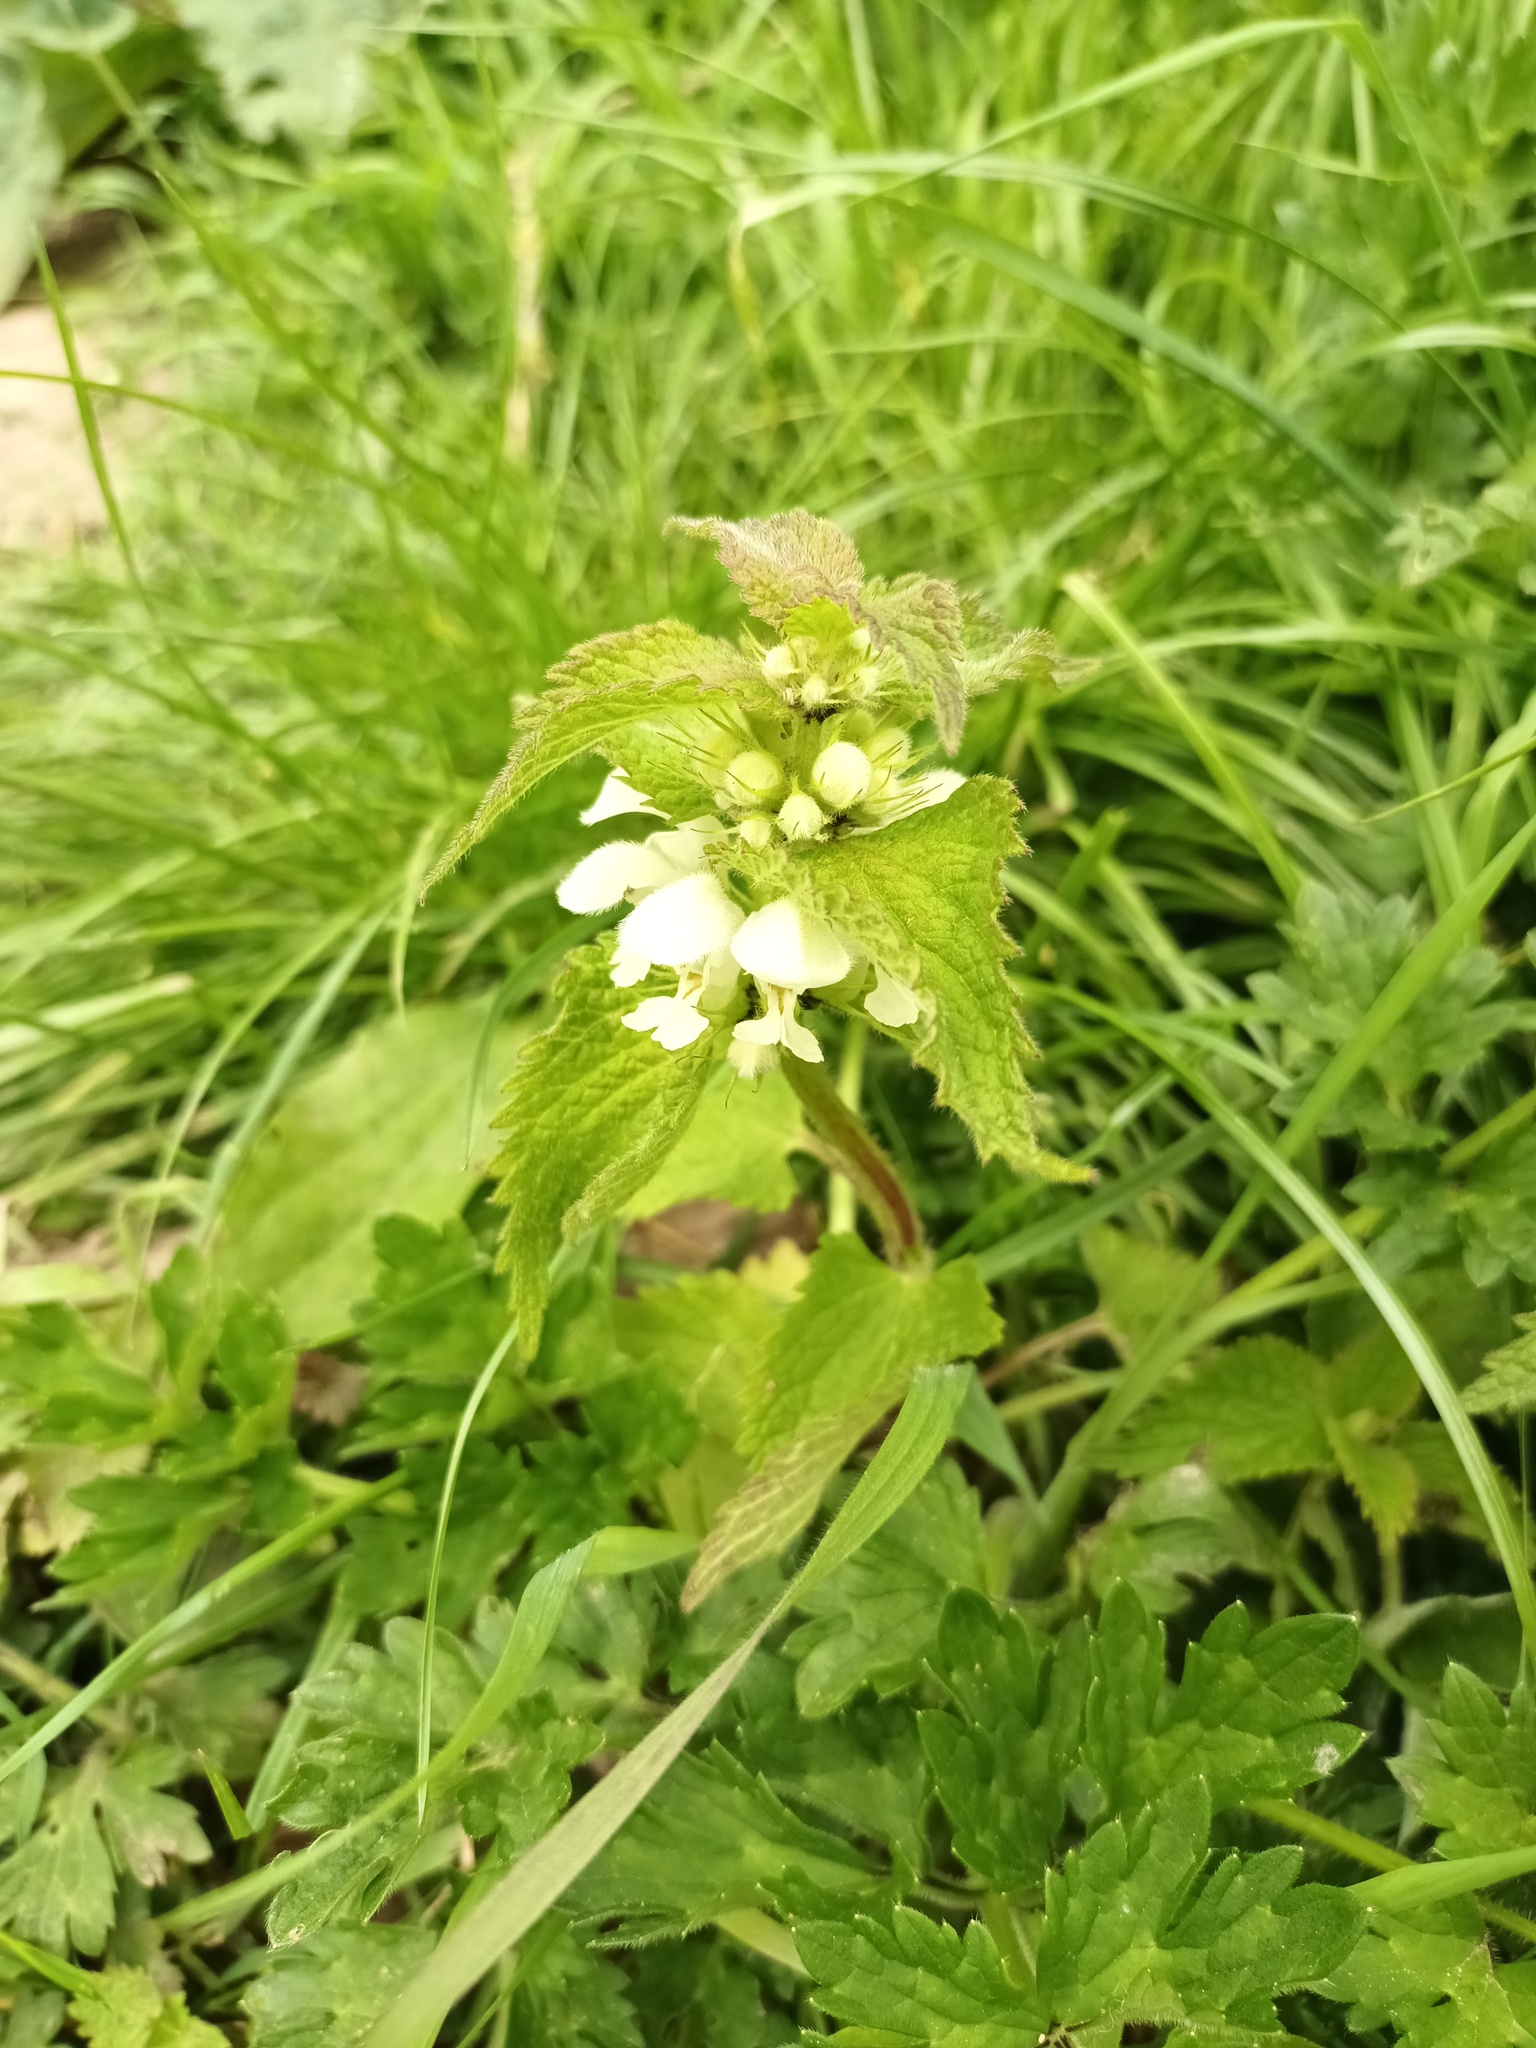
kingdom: Plantae
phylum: Tracheophyta
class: Magnoliopsida
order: Lamiales
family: Lamiaceae
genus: Lamium
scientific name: Lamium album
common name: White dead-nettle
